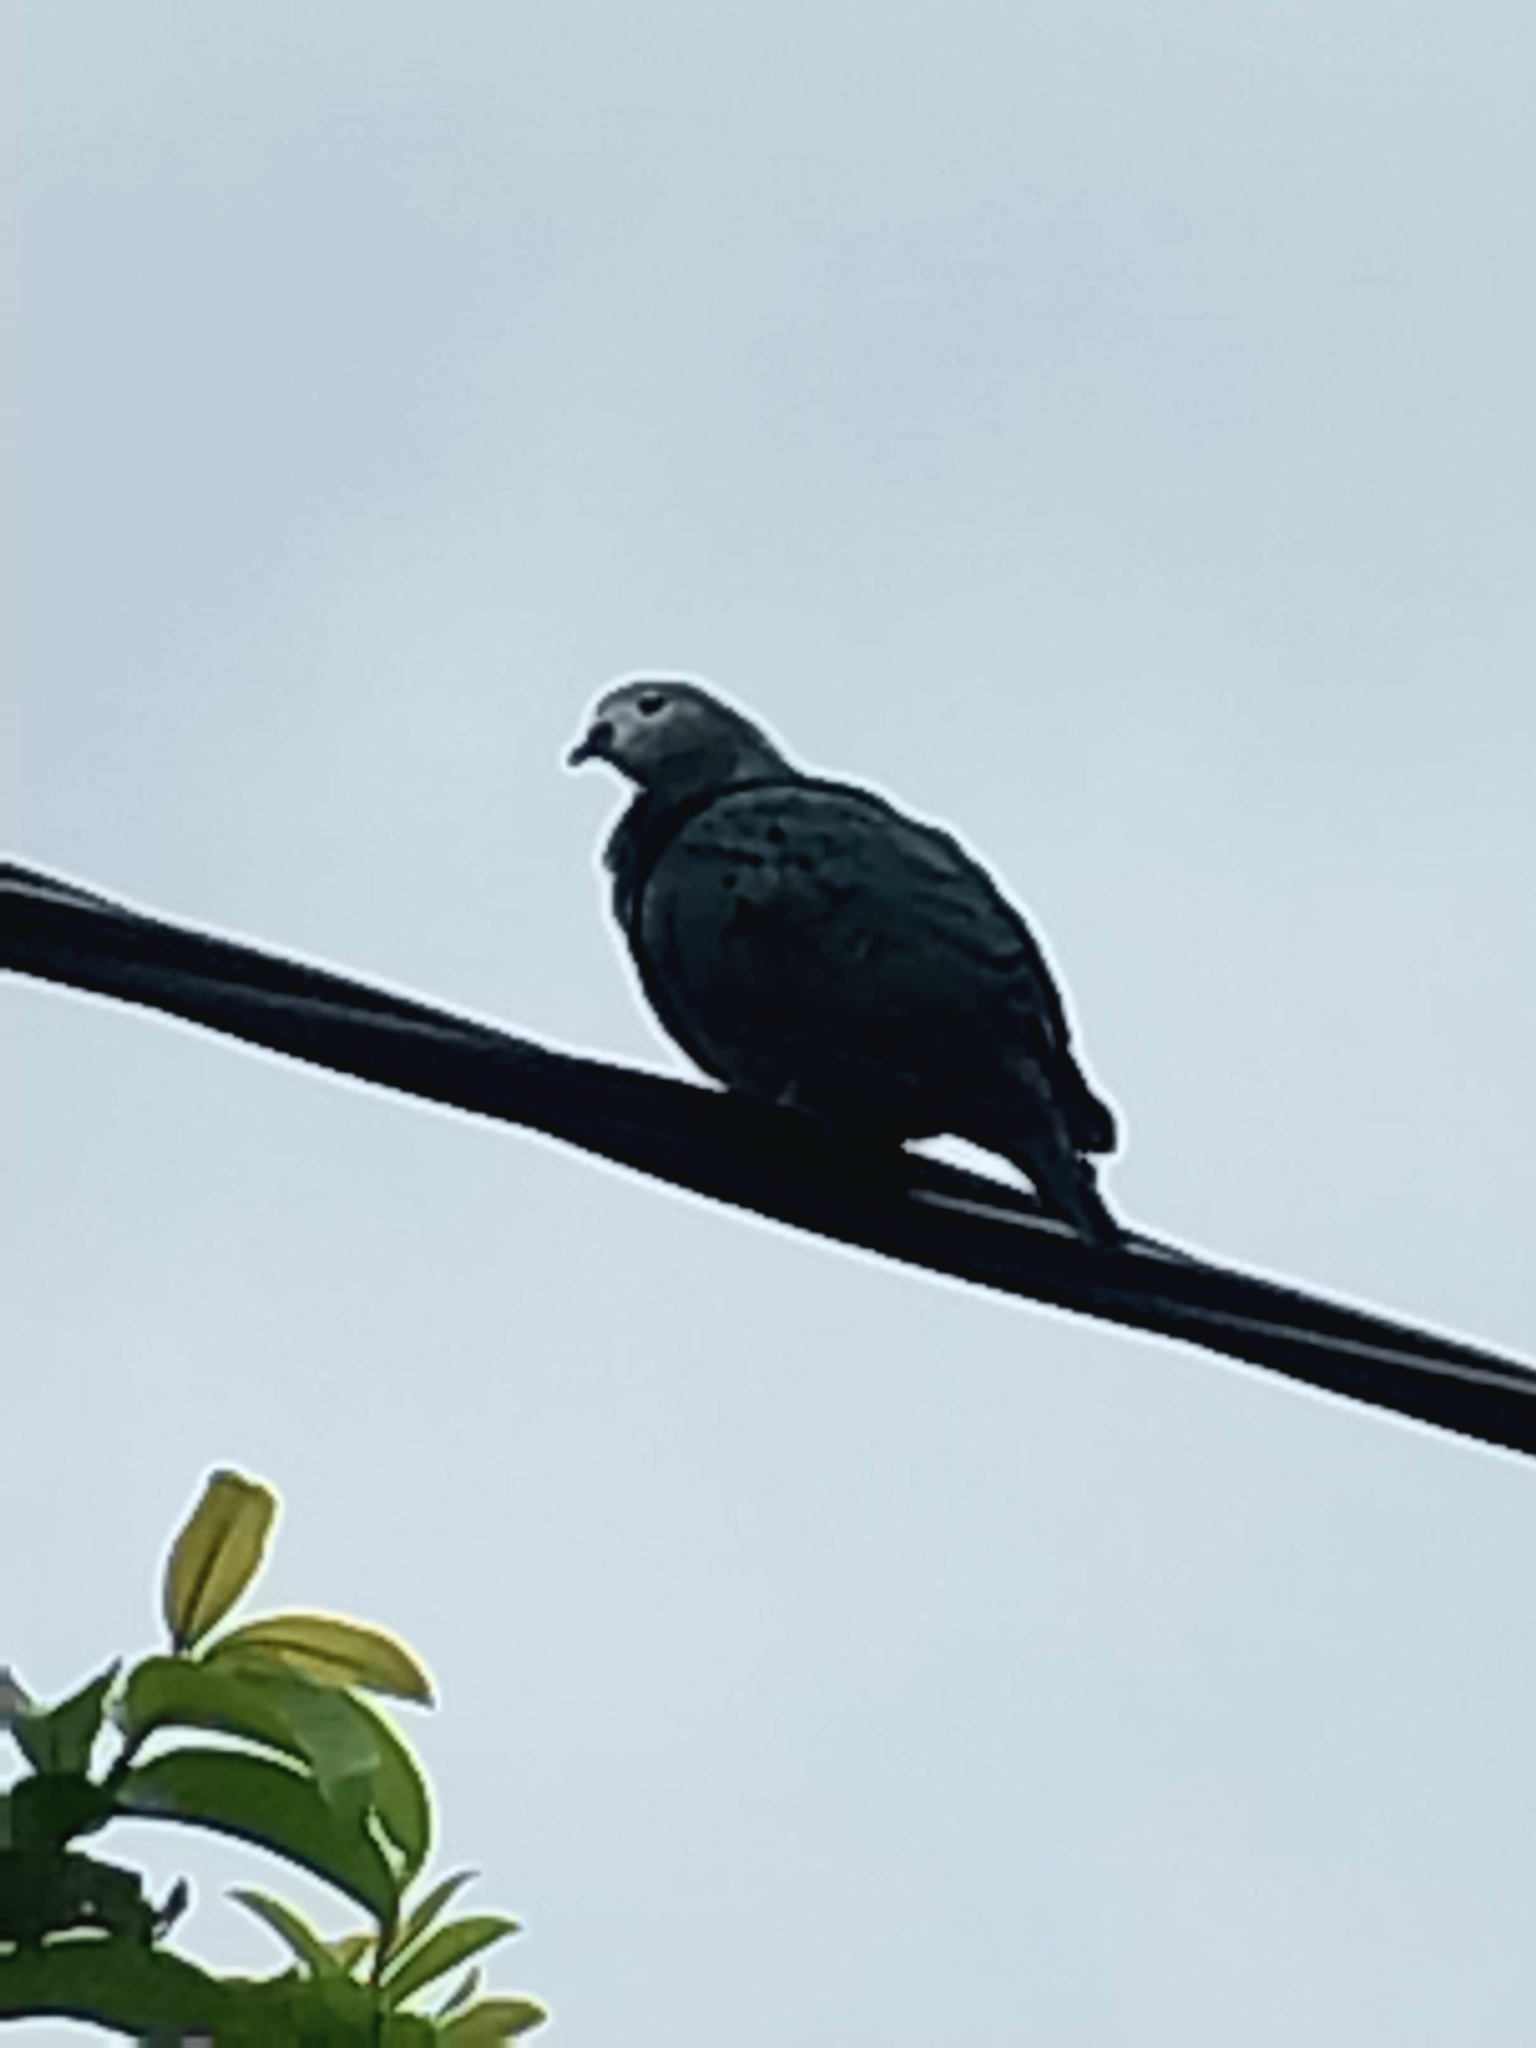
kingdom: Animalia
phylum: Chordata
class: Aves
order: Columbiformes
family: Columbidae
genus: Ducula
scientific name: Ducula pacifica
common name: Pacific imperial-pigeon
